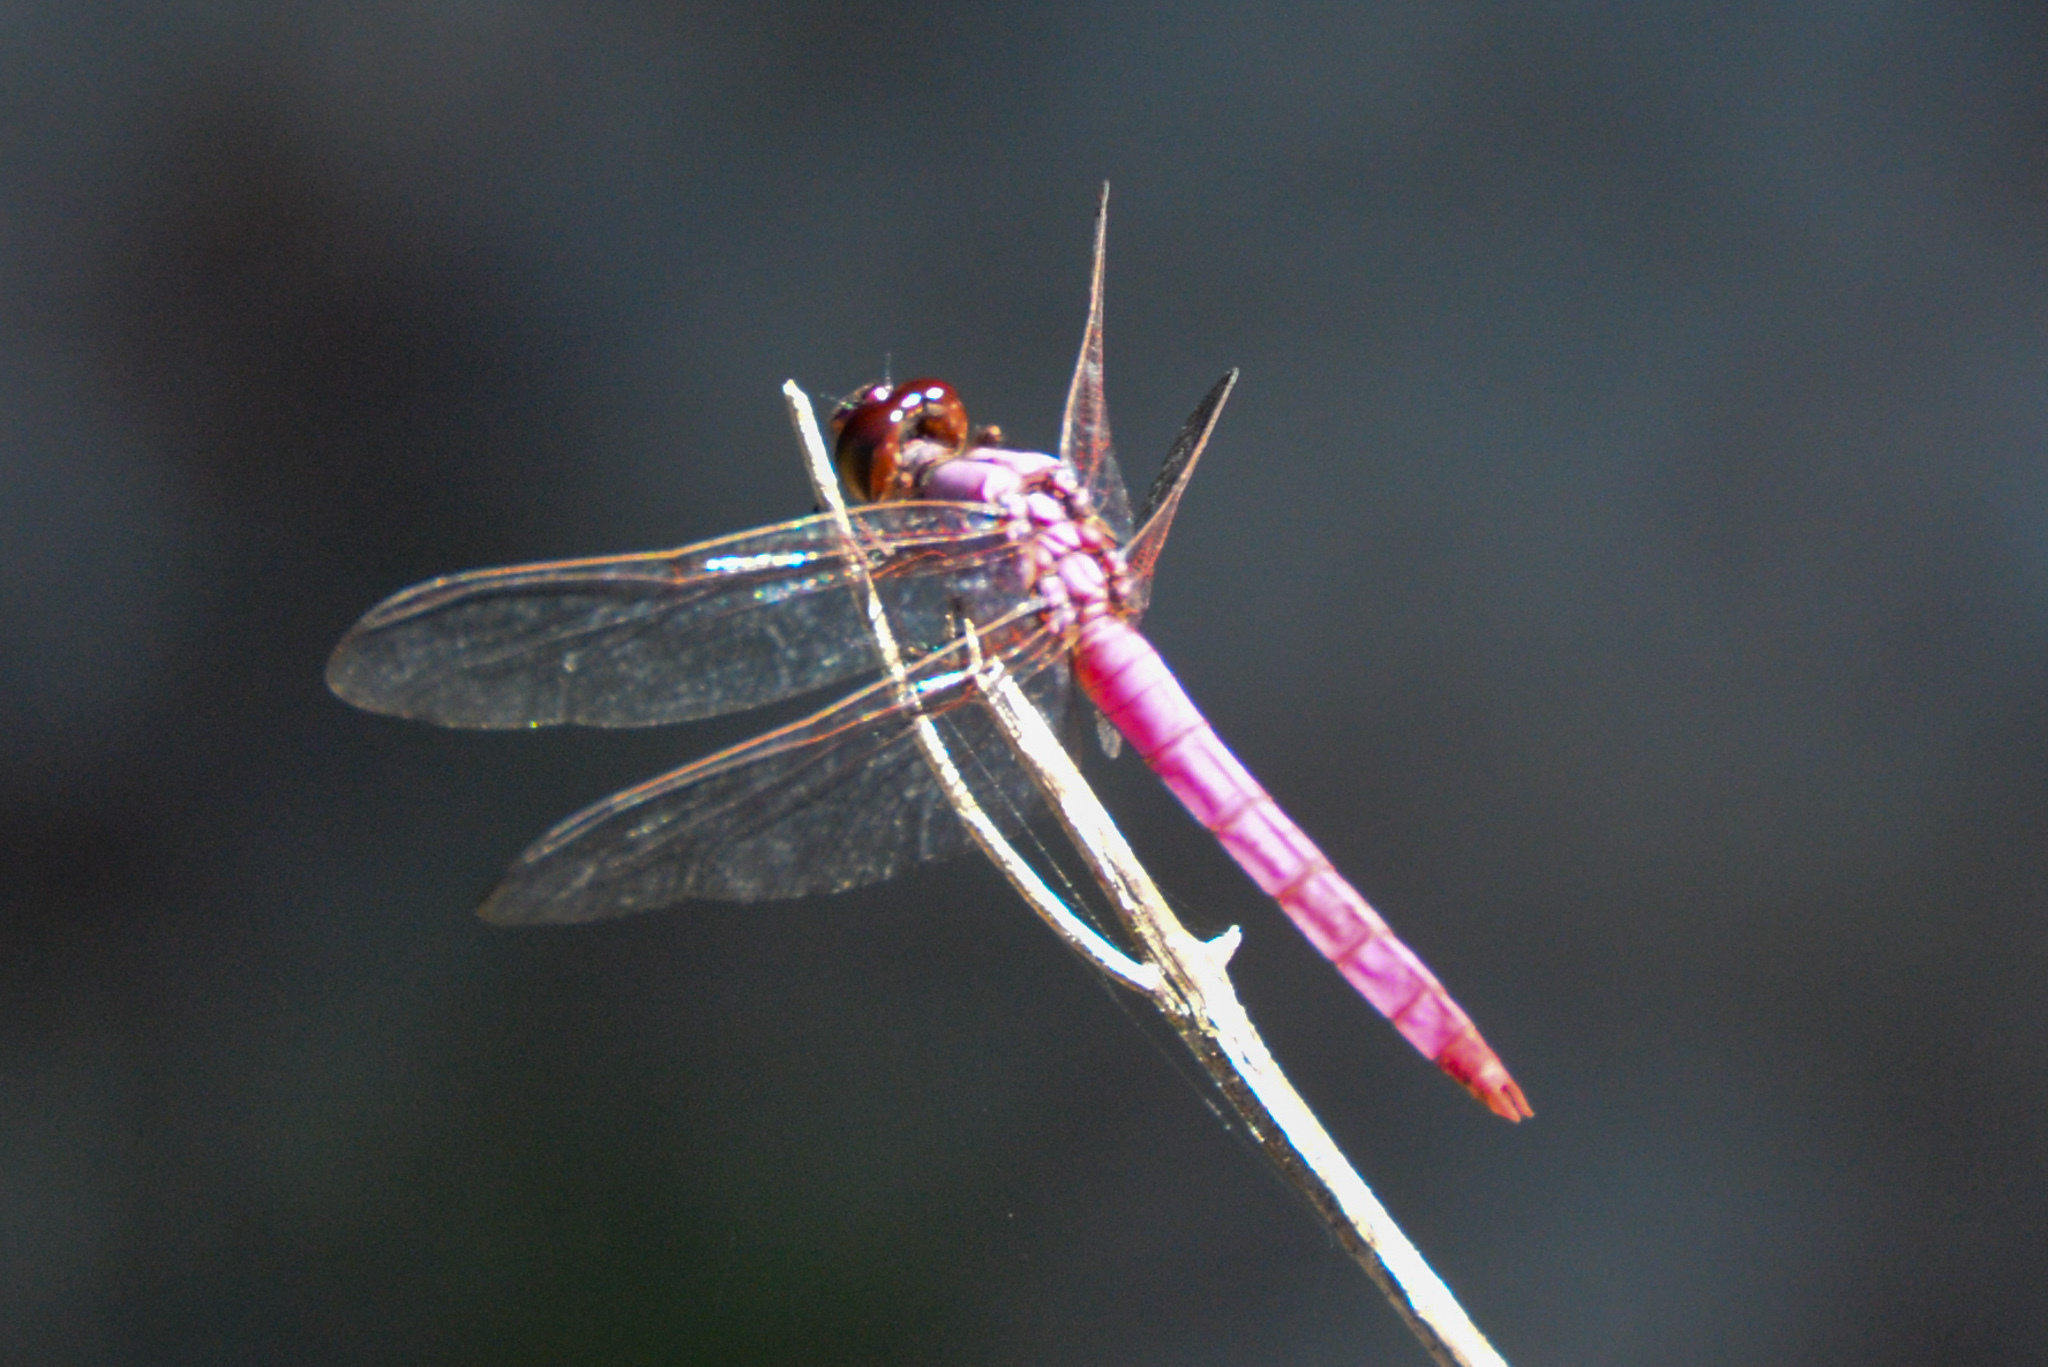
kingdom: Animalia
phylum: Arthropoda
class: Insecta
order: Odonata
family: Libellulidae
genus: Orthemis
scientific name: Orthemis ferruginea
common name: Roseate skimmer
